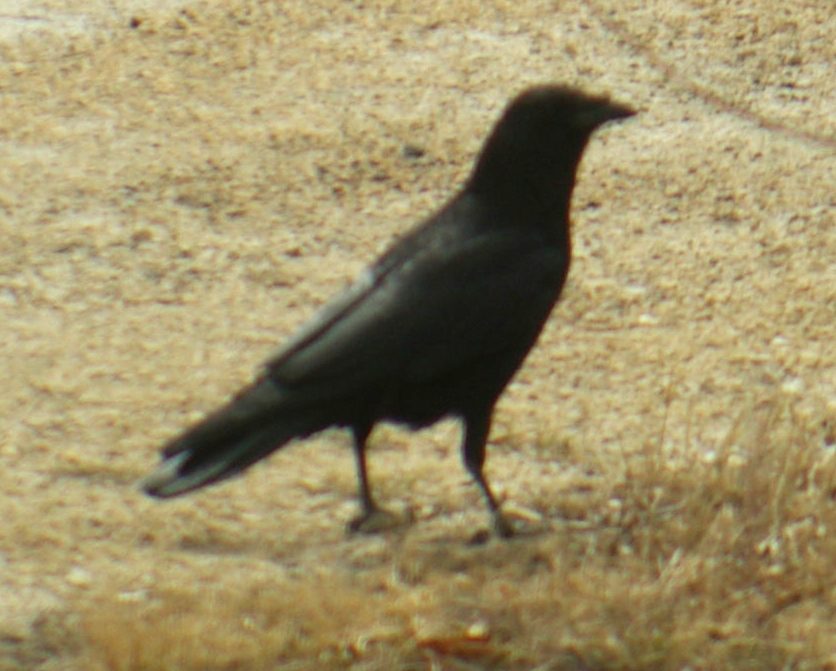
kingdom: Animalia
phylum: Chordata
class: Aves
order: Passeriformes
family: Corvidae
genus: Corvus
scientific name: Corvus brachyrhynchos
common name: American crow
